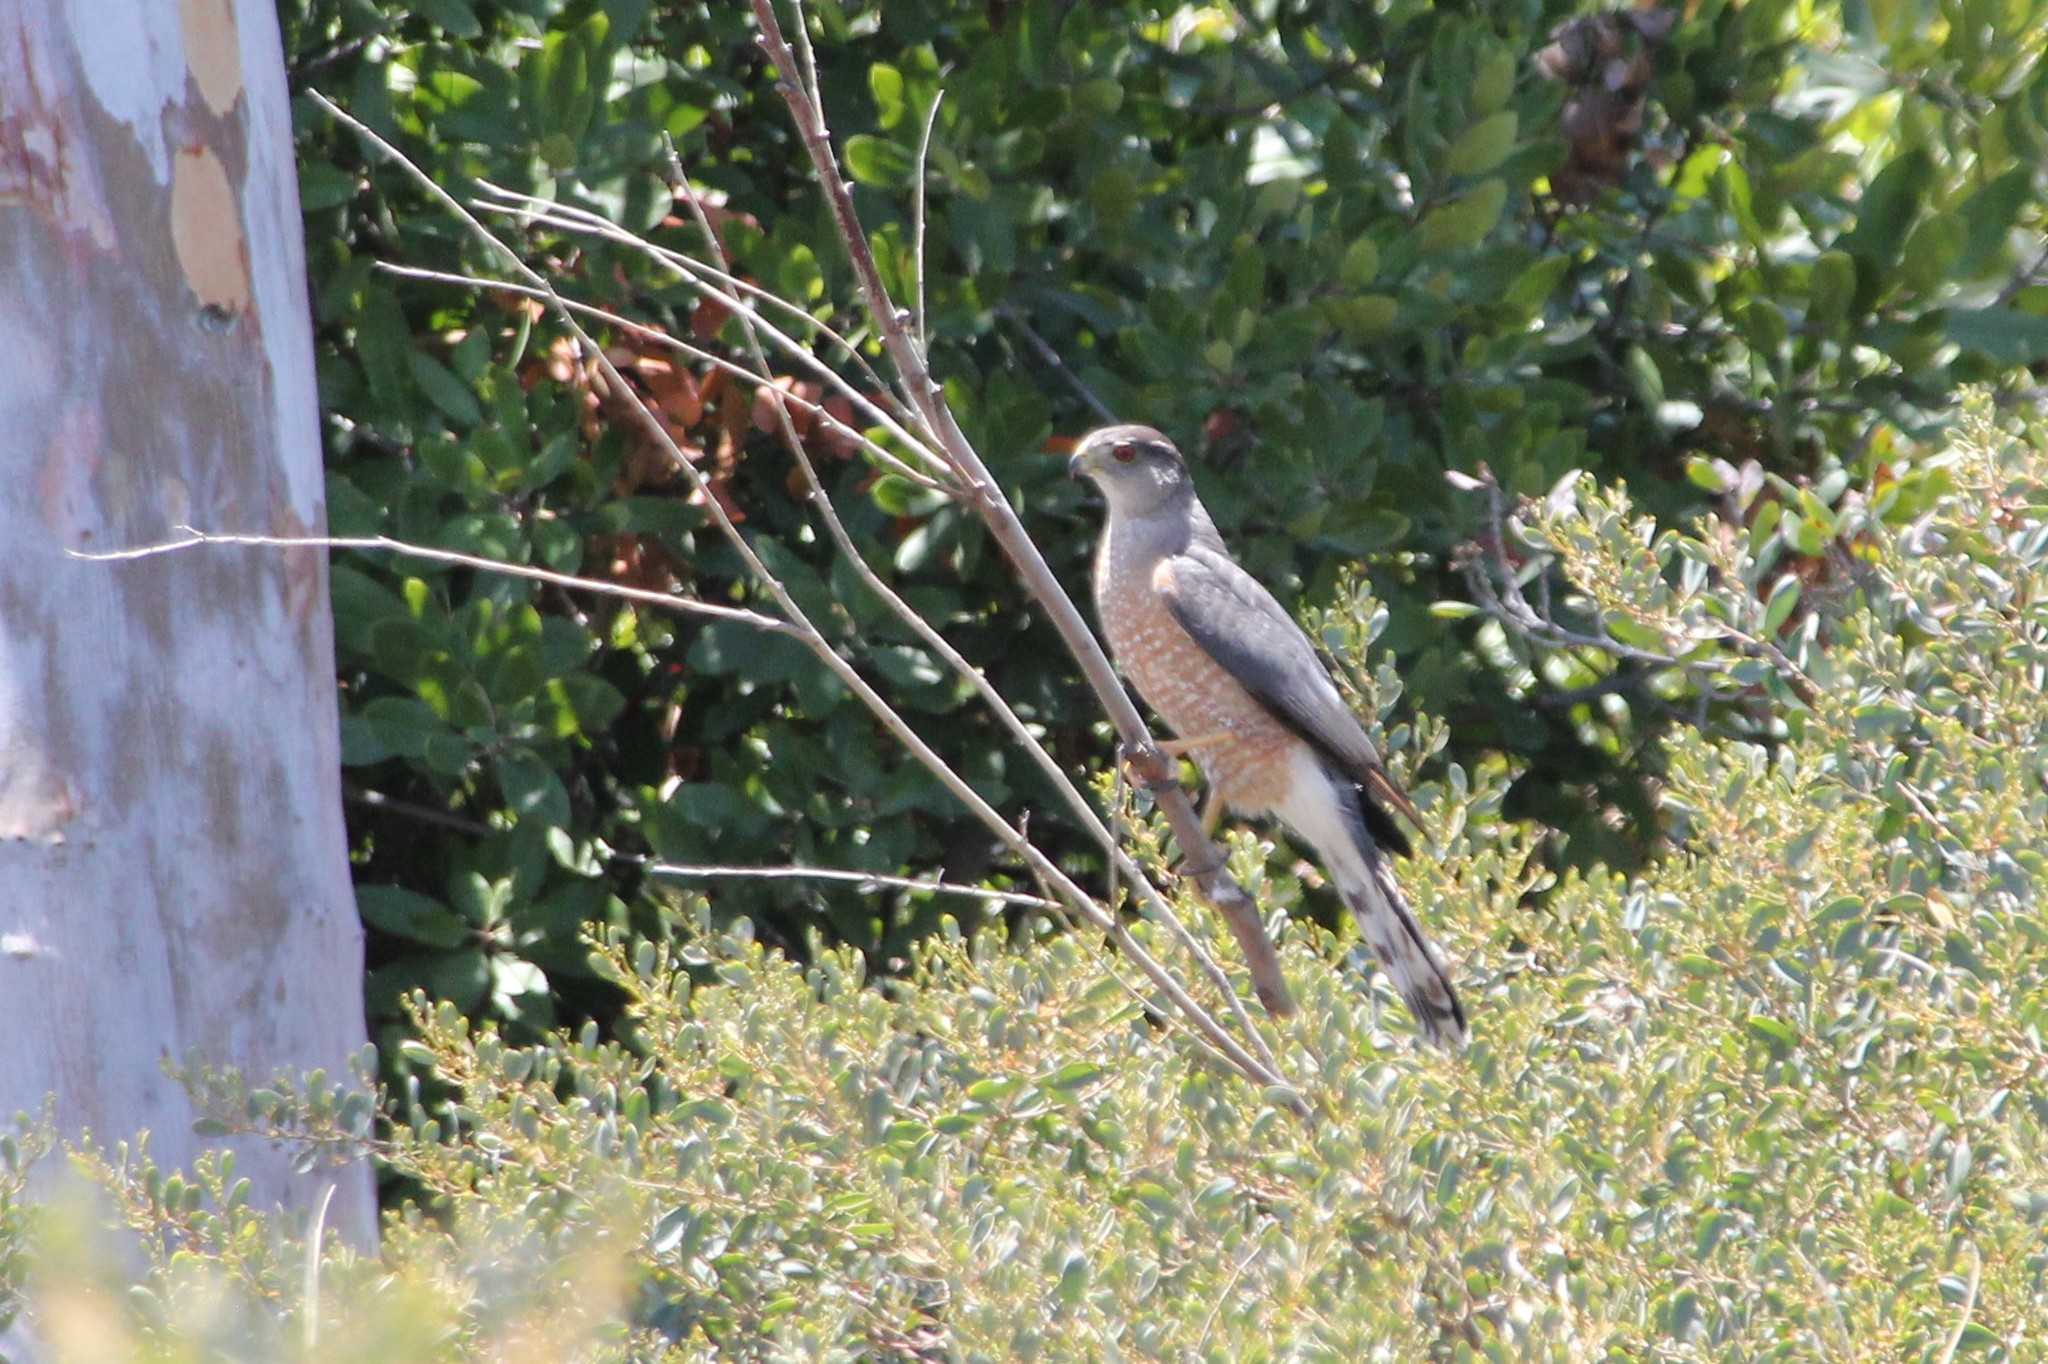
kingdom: Animalia
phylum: Chordata
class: Aves
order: Accipitriformes
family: Accipitridae
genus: Accipiter
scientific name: Accipiter cooperii
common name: Cooper's hawk
